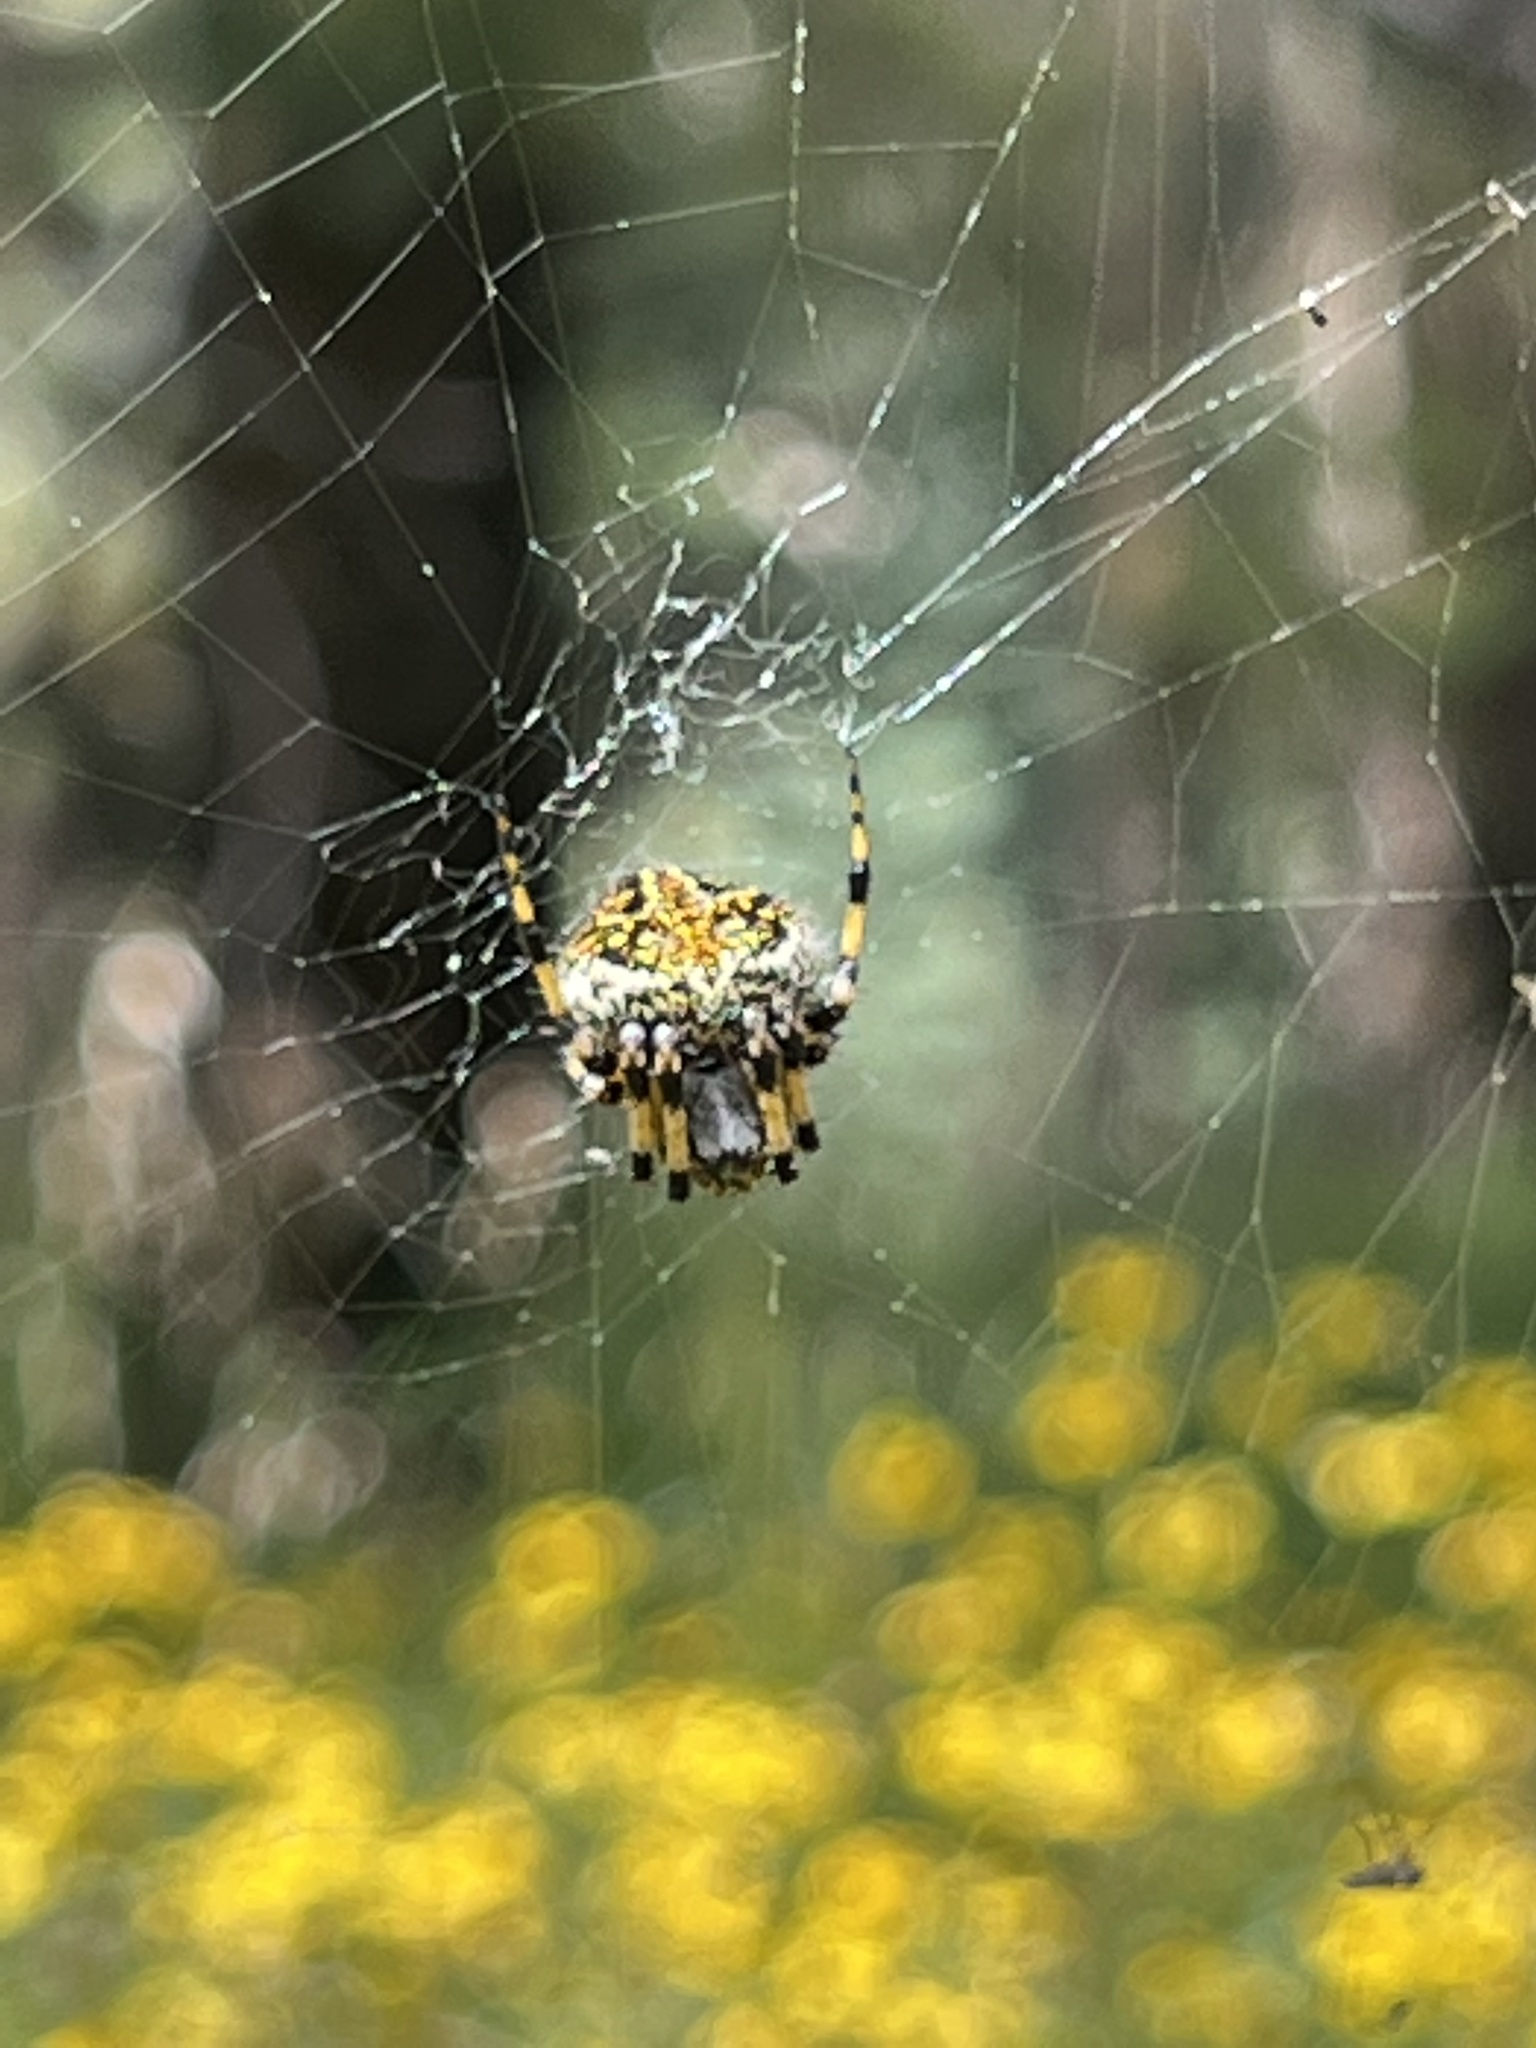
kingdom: Animalia
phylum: Arthropoda
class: Arachnida
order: Araneae
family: Araneidae
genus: Neoscona
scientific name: Neoscona orizabensis
